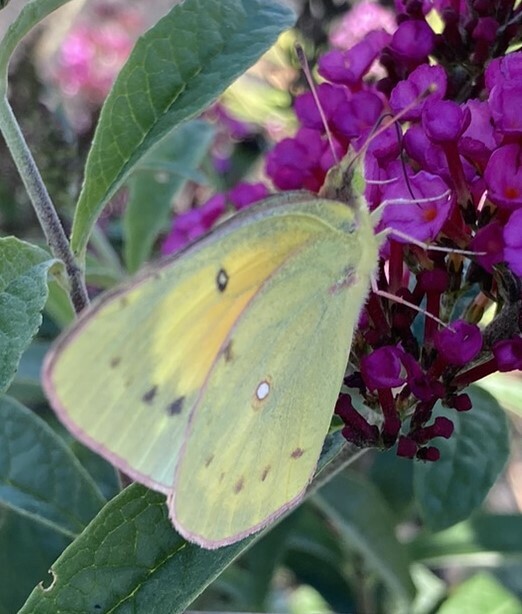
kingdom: Animalia
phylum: Arthropoda
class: Insecta
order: Lepidoptera
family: Pieridae
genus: Colias
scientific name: Colias eurytheme
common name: Alfalfa butterfly
